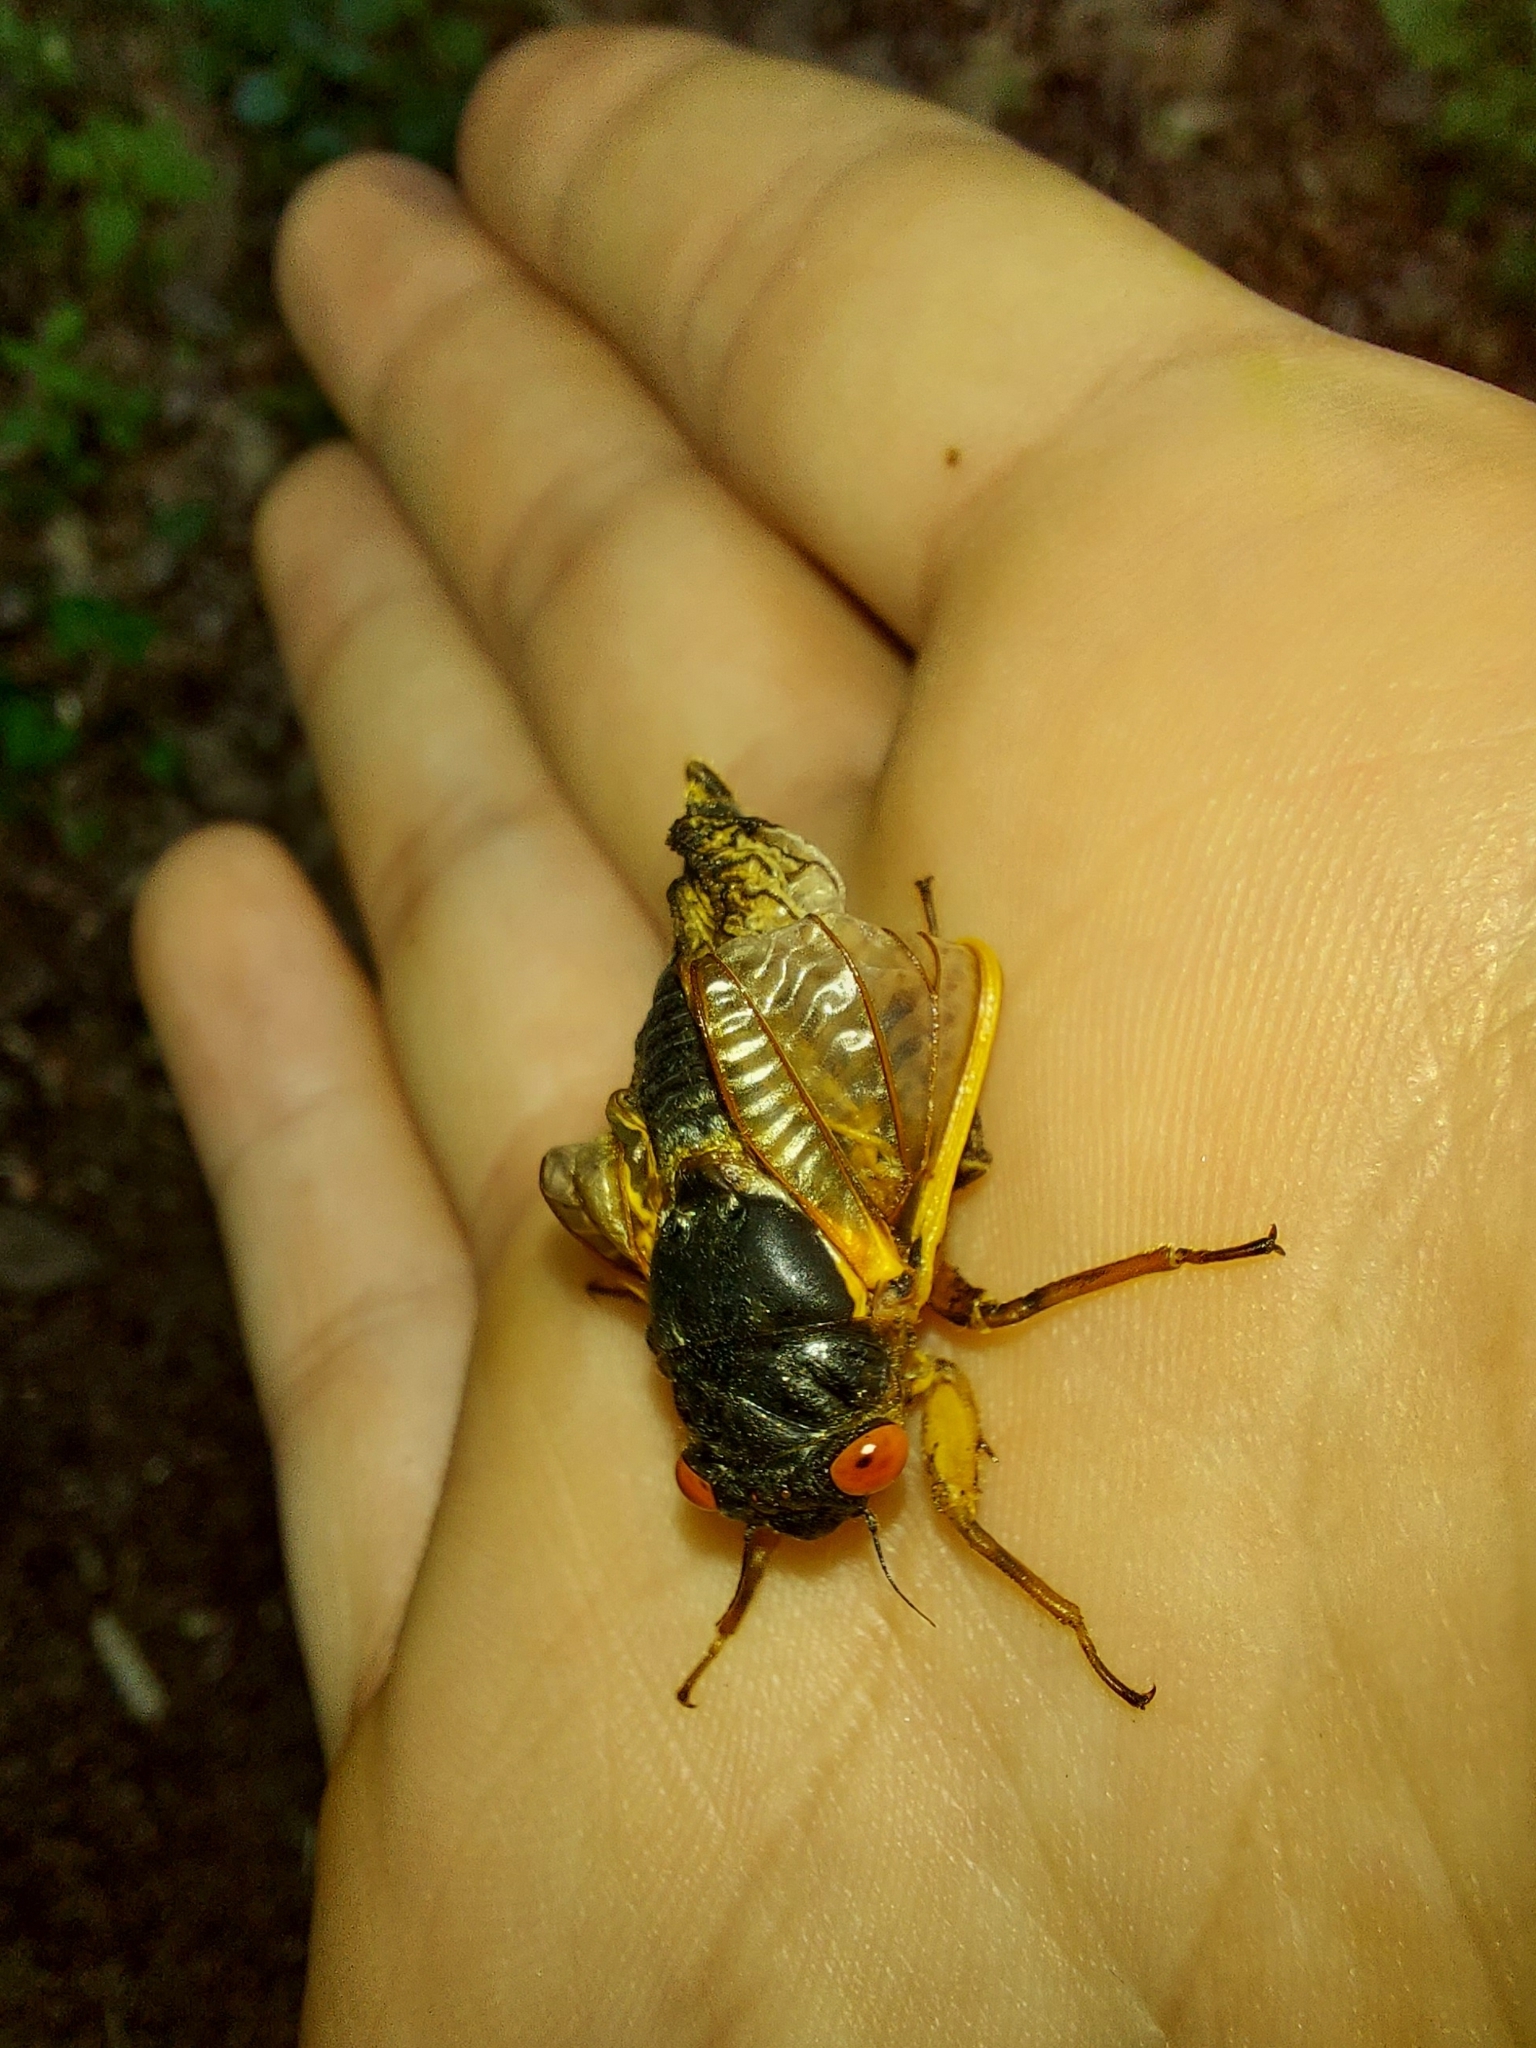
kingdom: Animalia
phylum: Arthropoda
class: Insecta
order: Hemiptera
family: Cicadidae
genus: Magicicada
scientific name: Magicicada septendecim
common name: Periodical cicada
